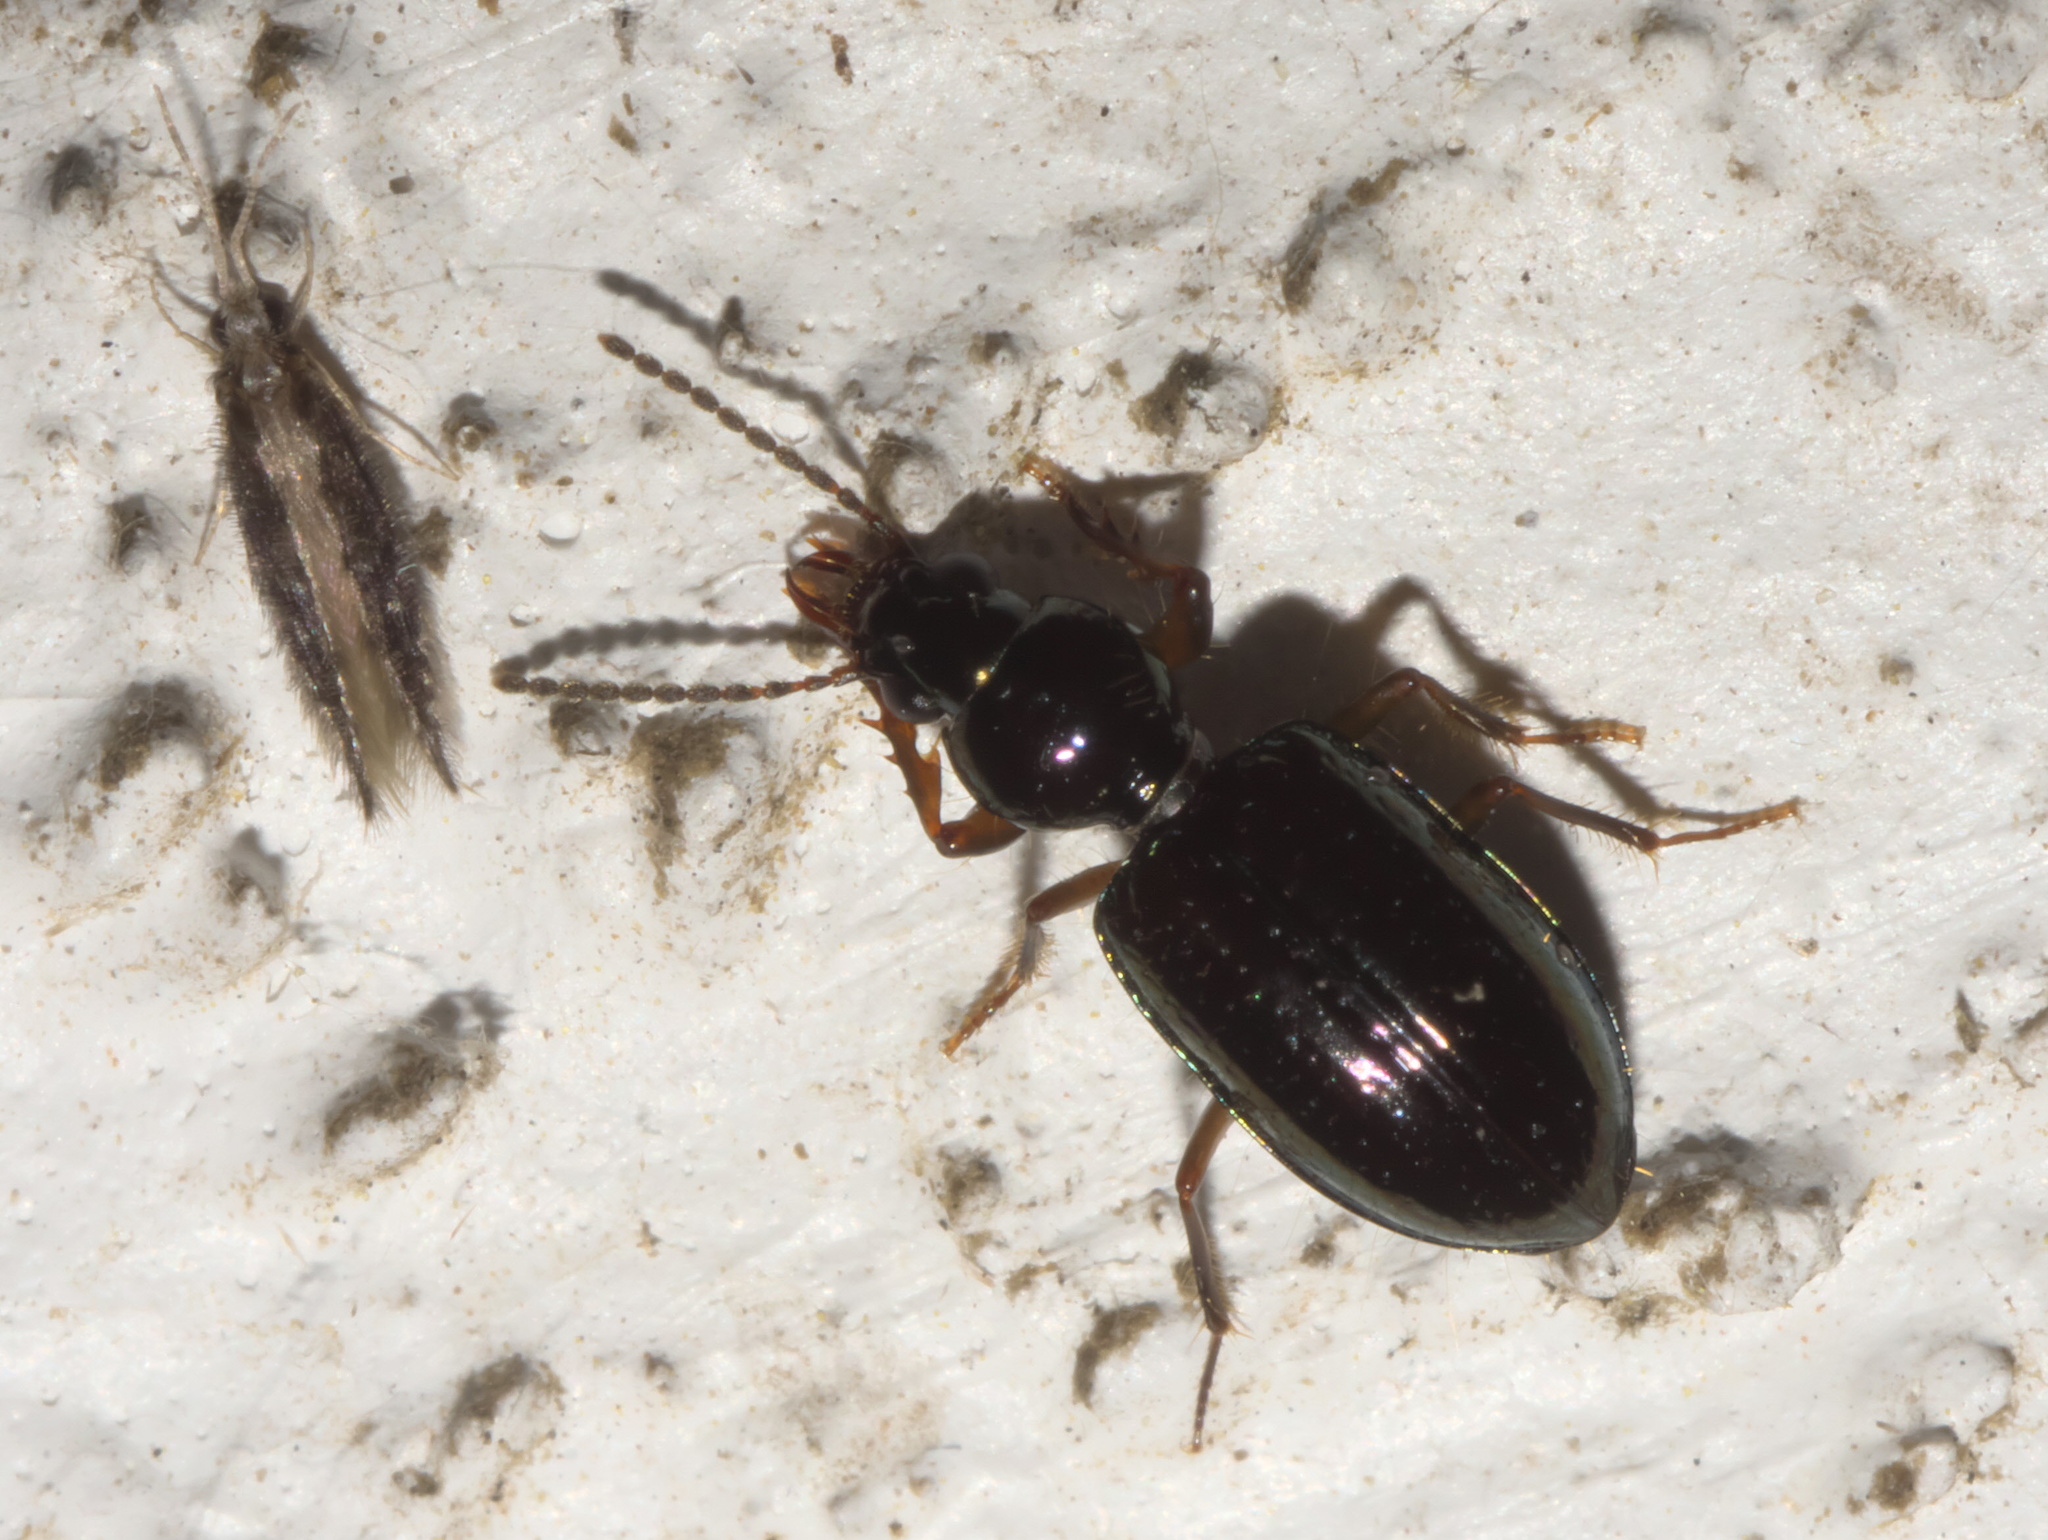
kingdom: Animalia
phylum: Arthropoda
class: Insecta
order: Coleoptera
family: Carabidae
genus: Semiardistomis
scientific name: Semiardistomis viridis
